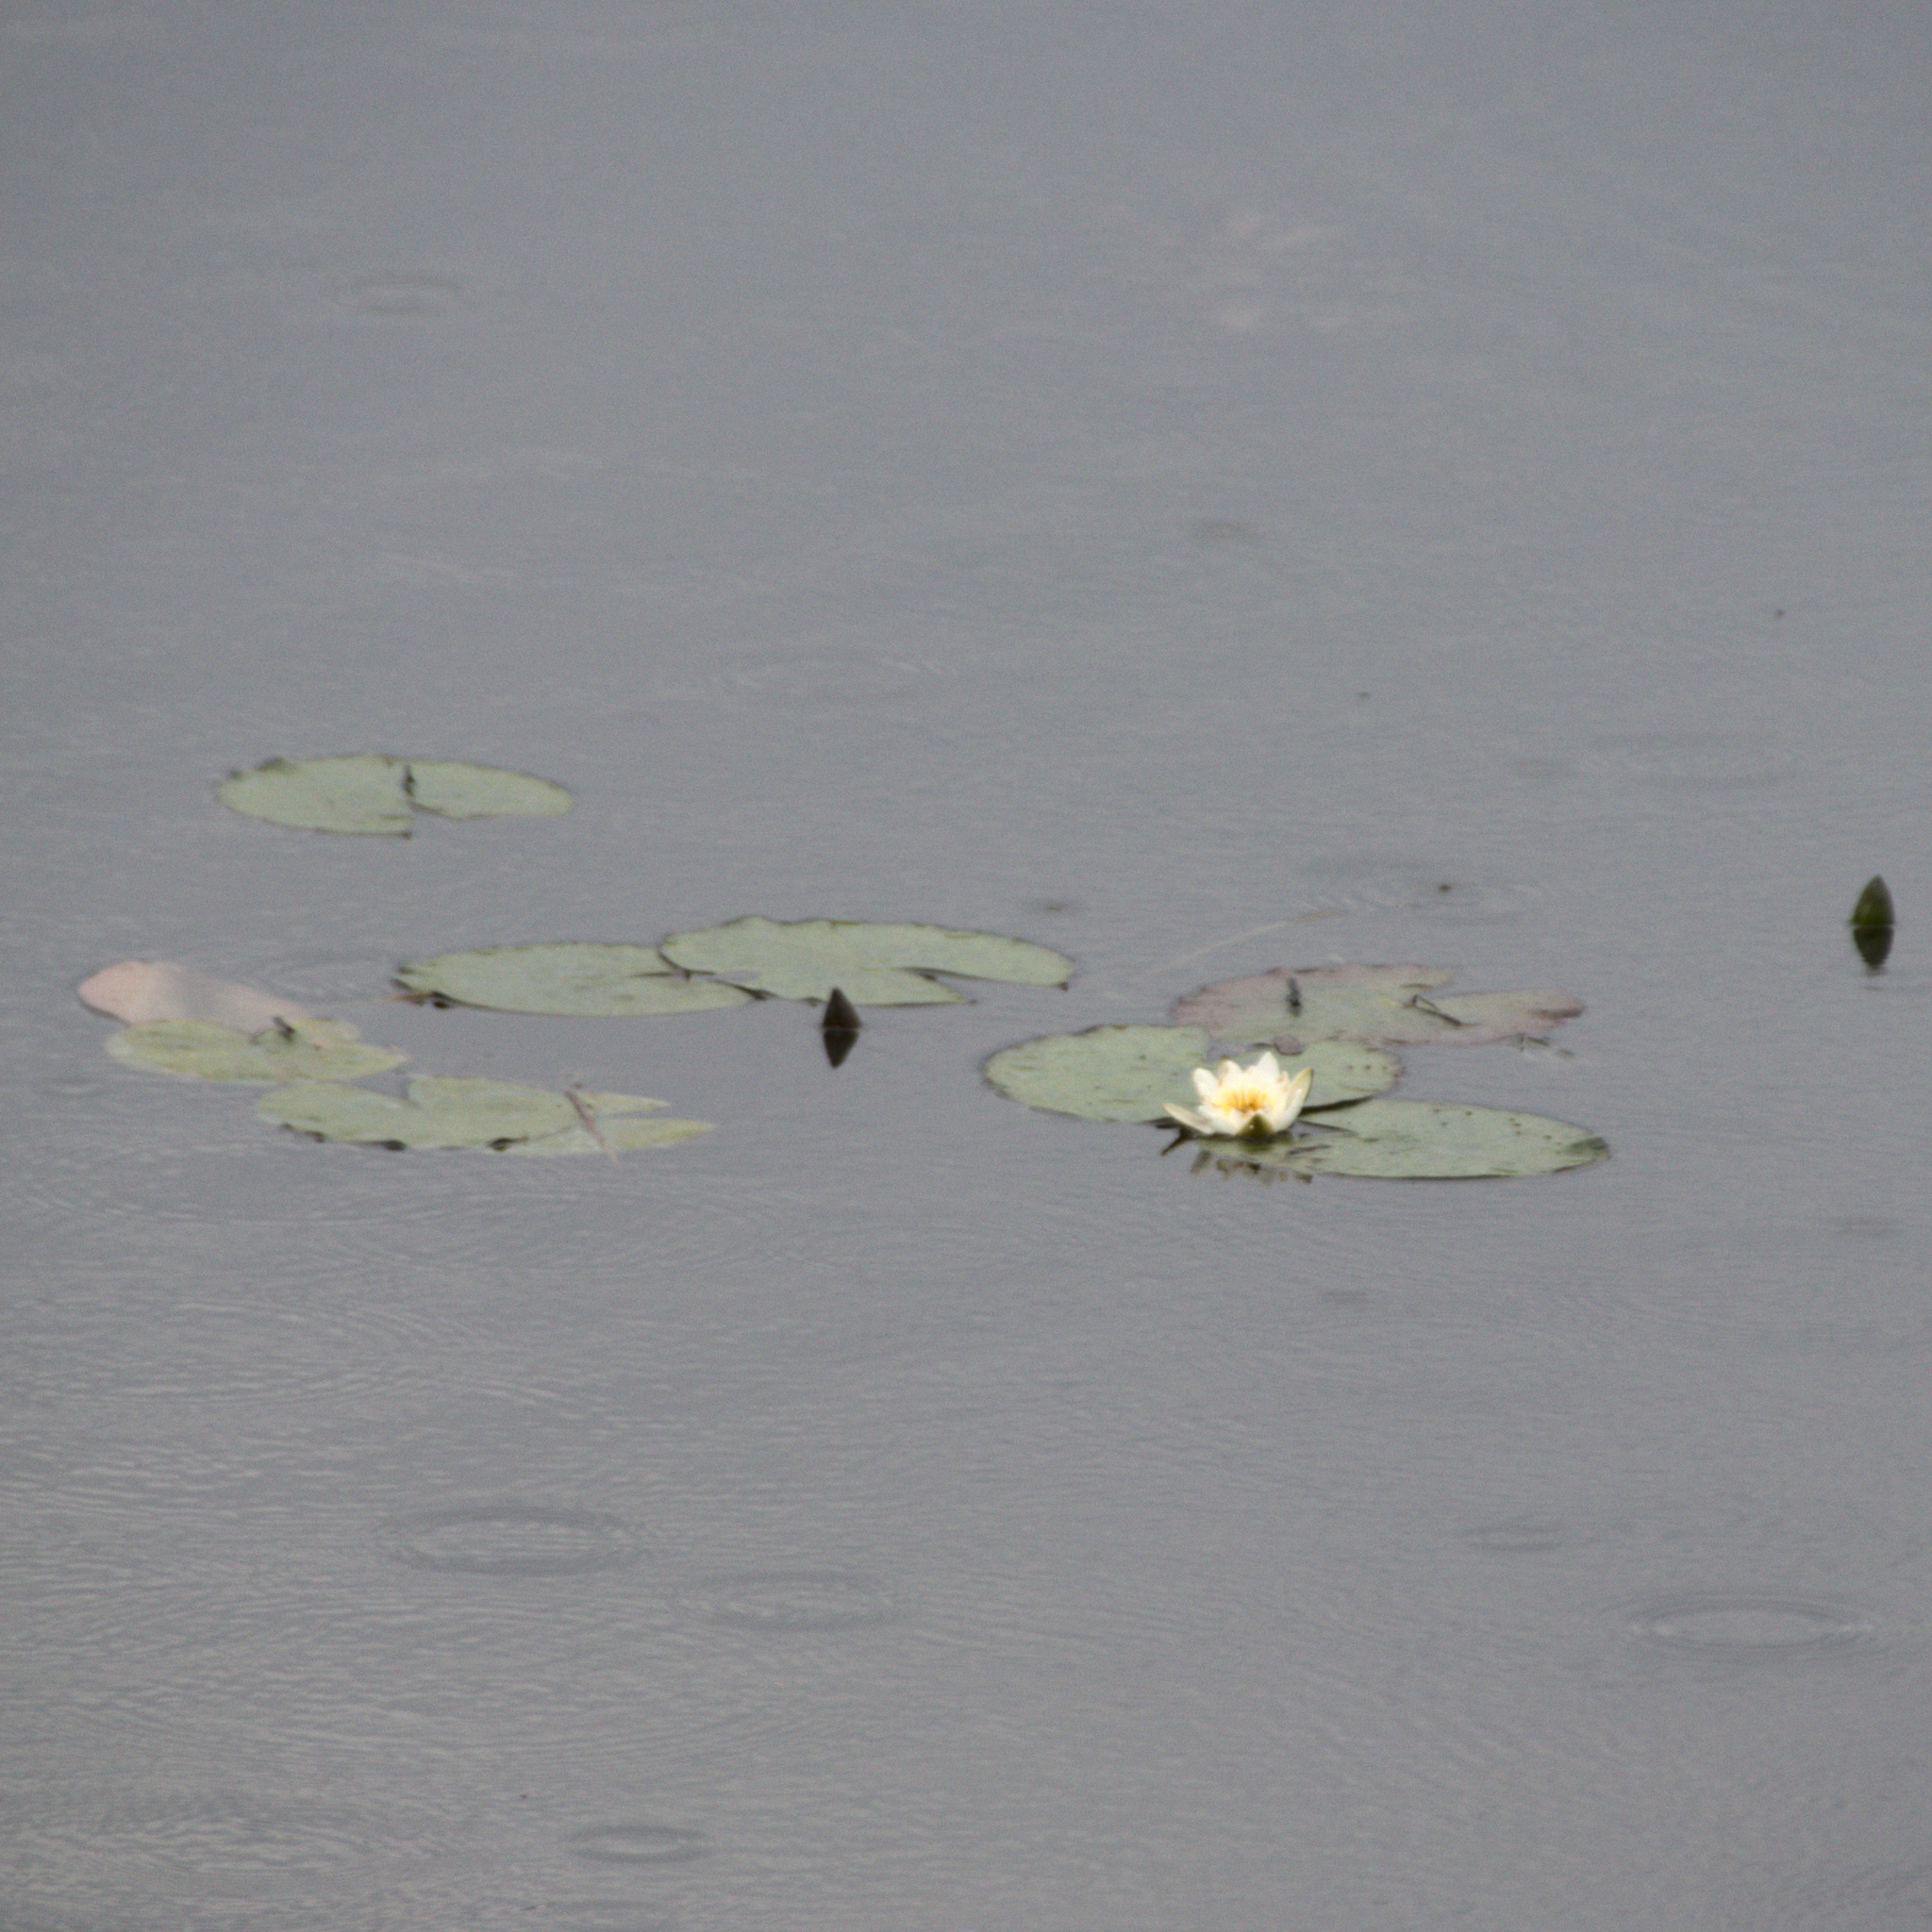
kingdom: Plantae
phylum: Tracheophyta
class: Magnoliopsida
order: Nymphaeales
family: Nymphaeaceae
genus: Nymphaea
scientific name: Nymphaea candida
